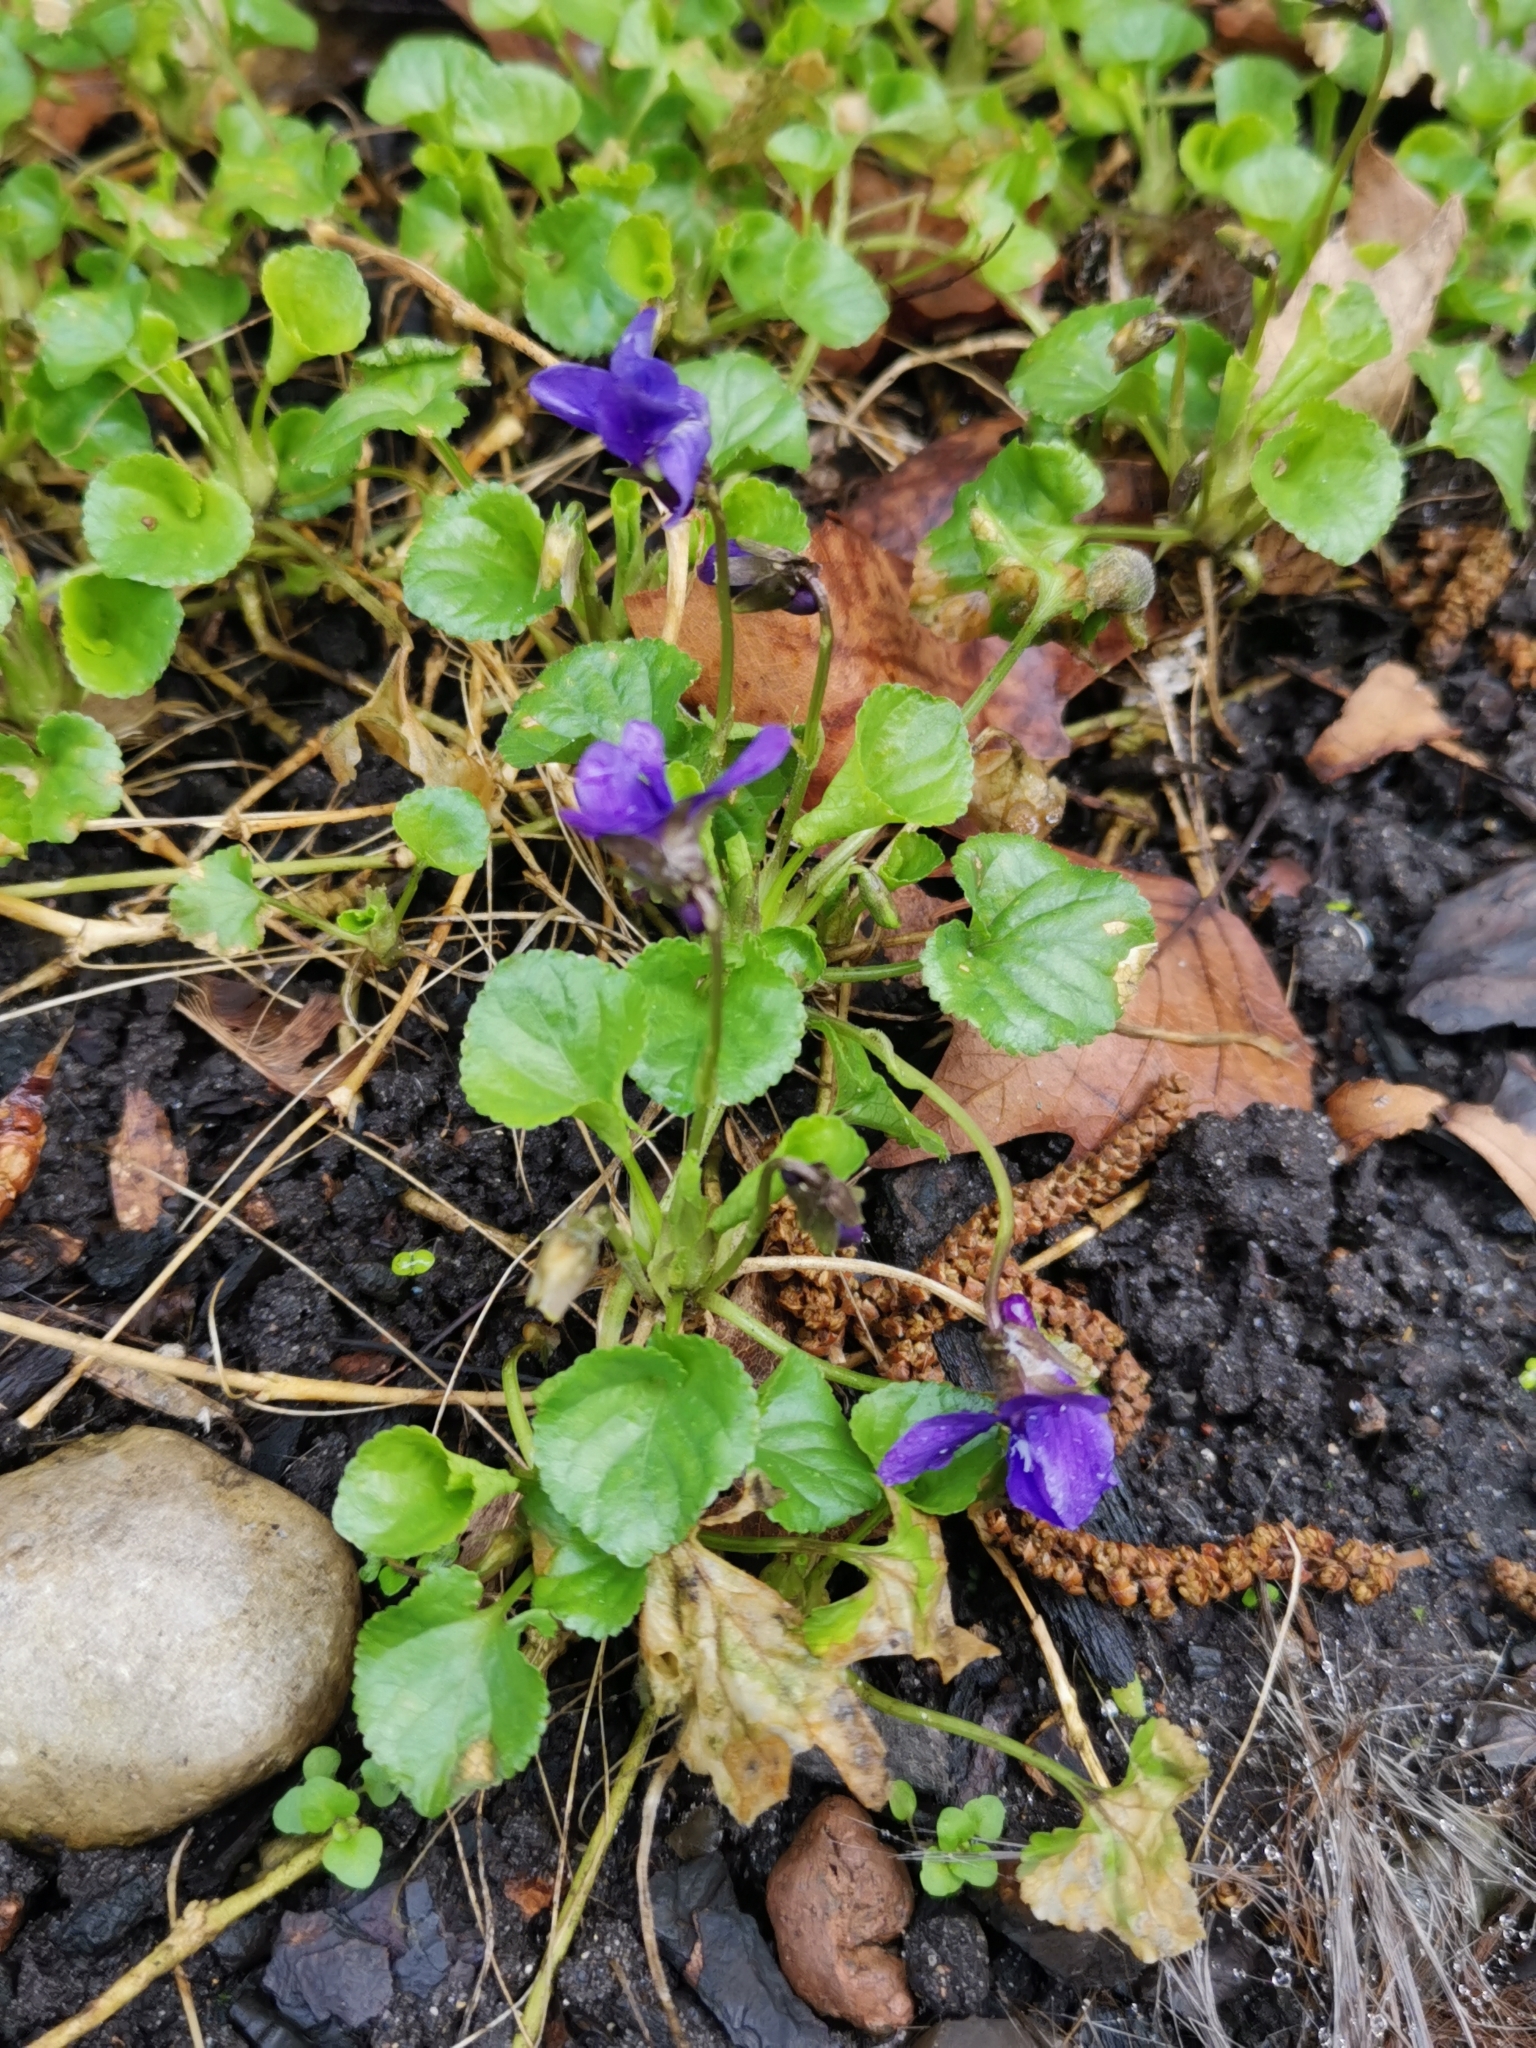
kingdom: Plantae
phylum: Tracheophyta
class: Magnoliopsida
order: Malpighiales
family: Violaceae
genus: Viola
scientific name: Viola odorata
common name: Sweet violet
